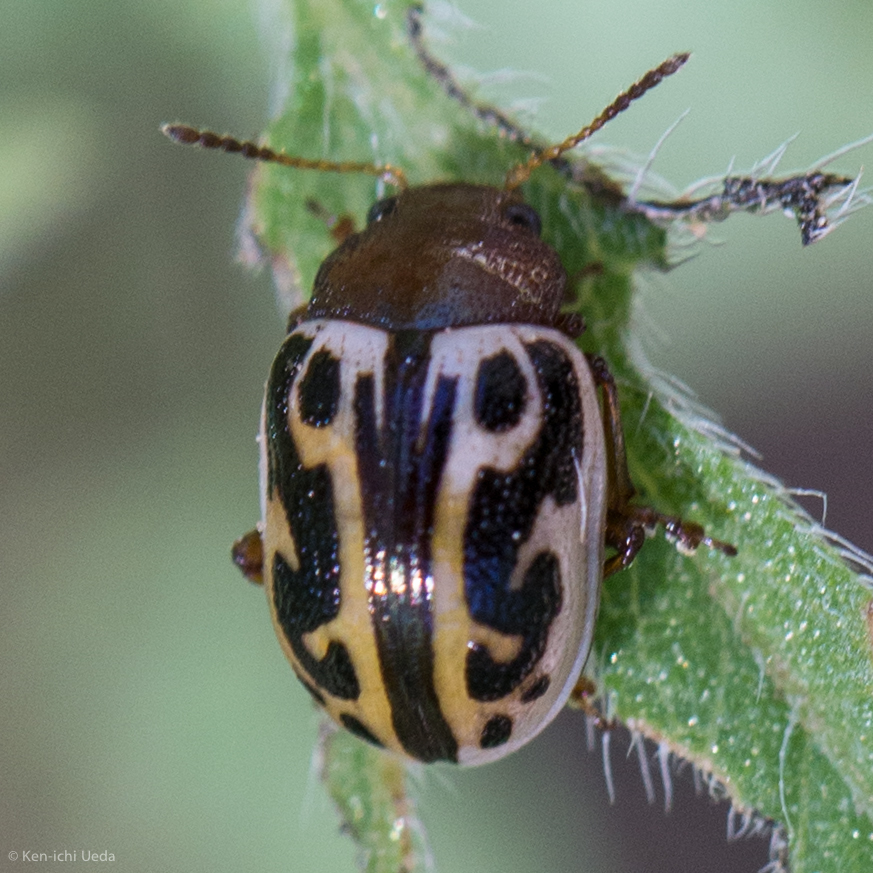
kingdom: Animalia
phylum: Arthropoda
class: Insecta
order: Coleoptera
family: Chrysomelidae
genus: Calligrapha
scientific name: Calligrapha
